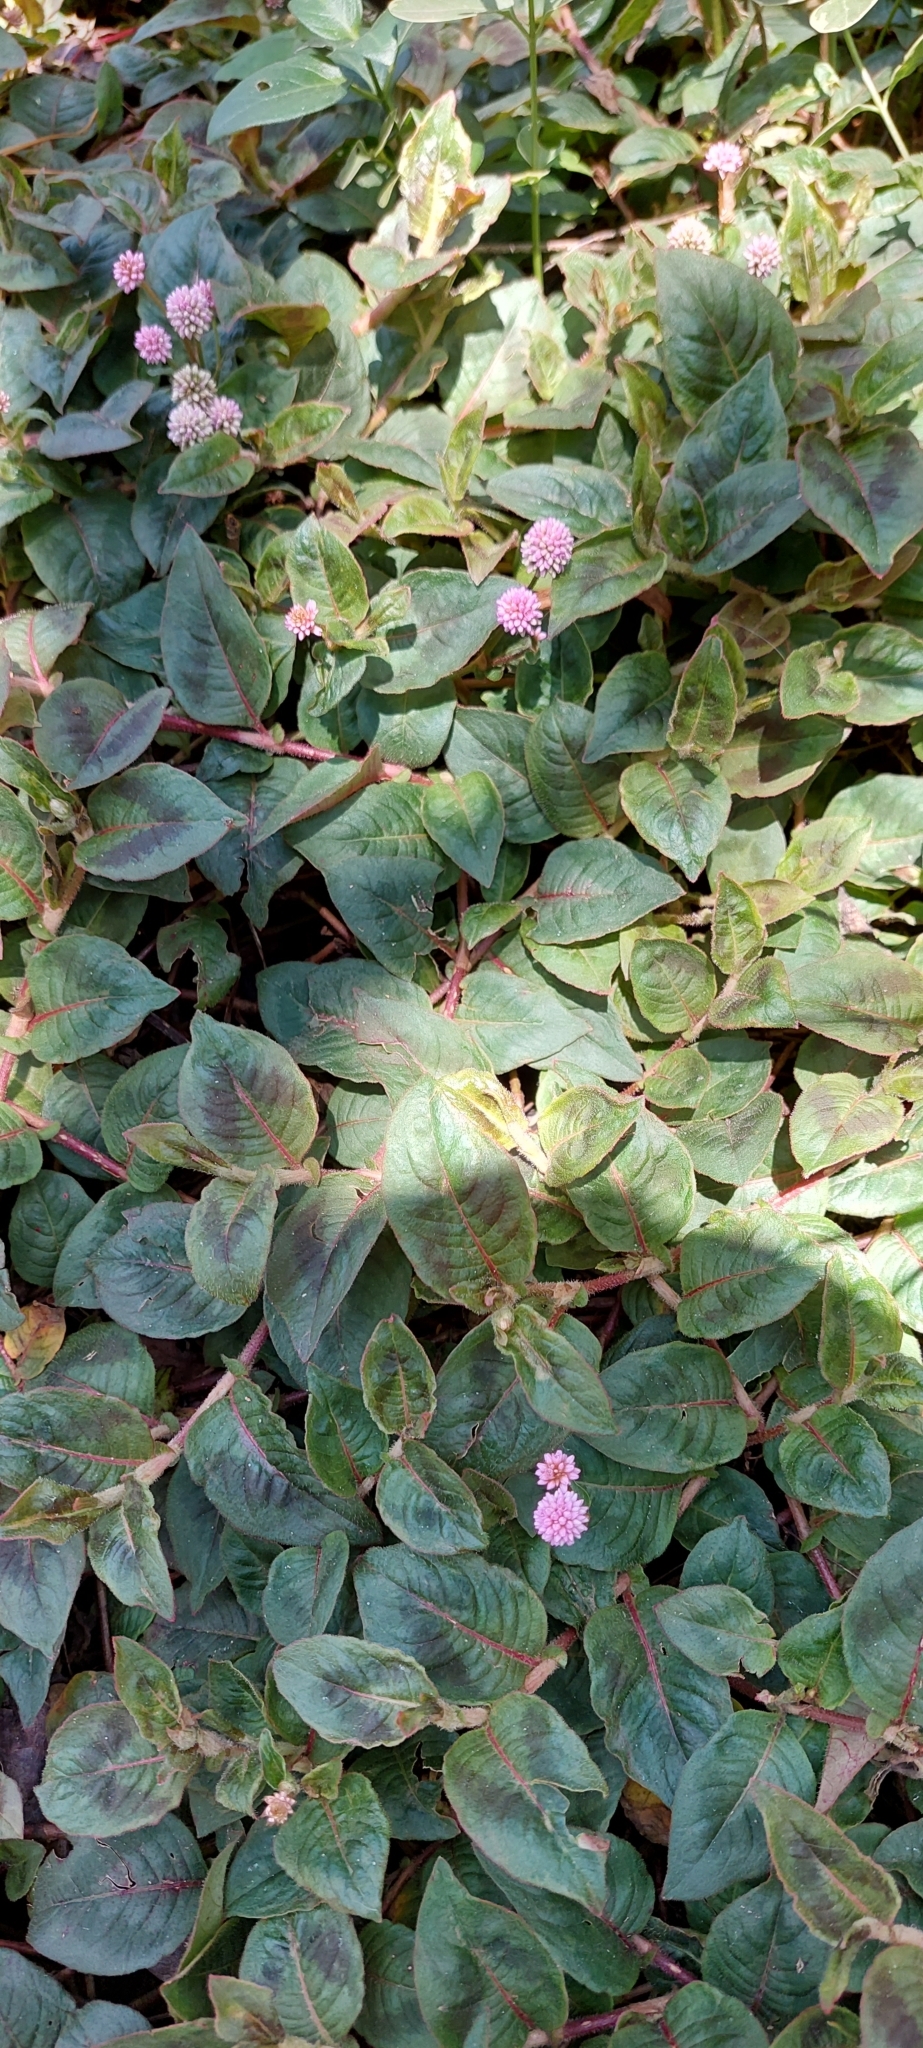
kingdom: Plantae
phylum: Tracheophyta
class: Magnoliopsida
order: Caryophyllales
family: Polygonaceae
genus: Persicaria
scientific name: Persicaria capitata
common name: Pinkhead smartweed
